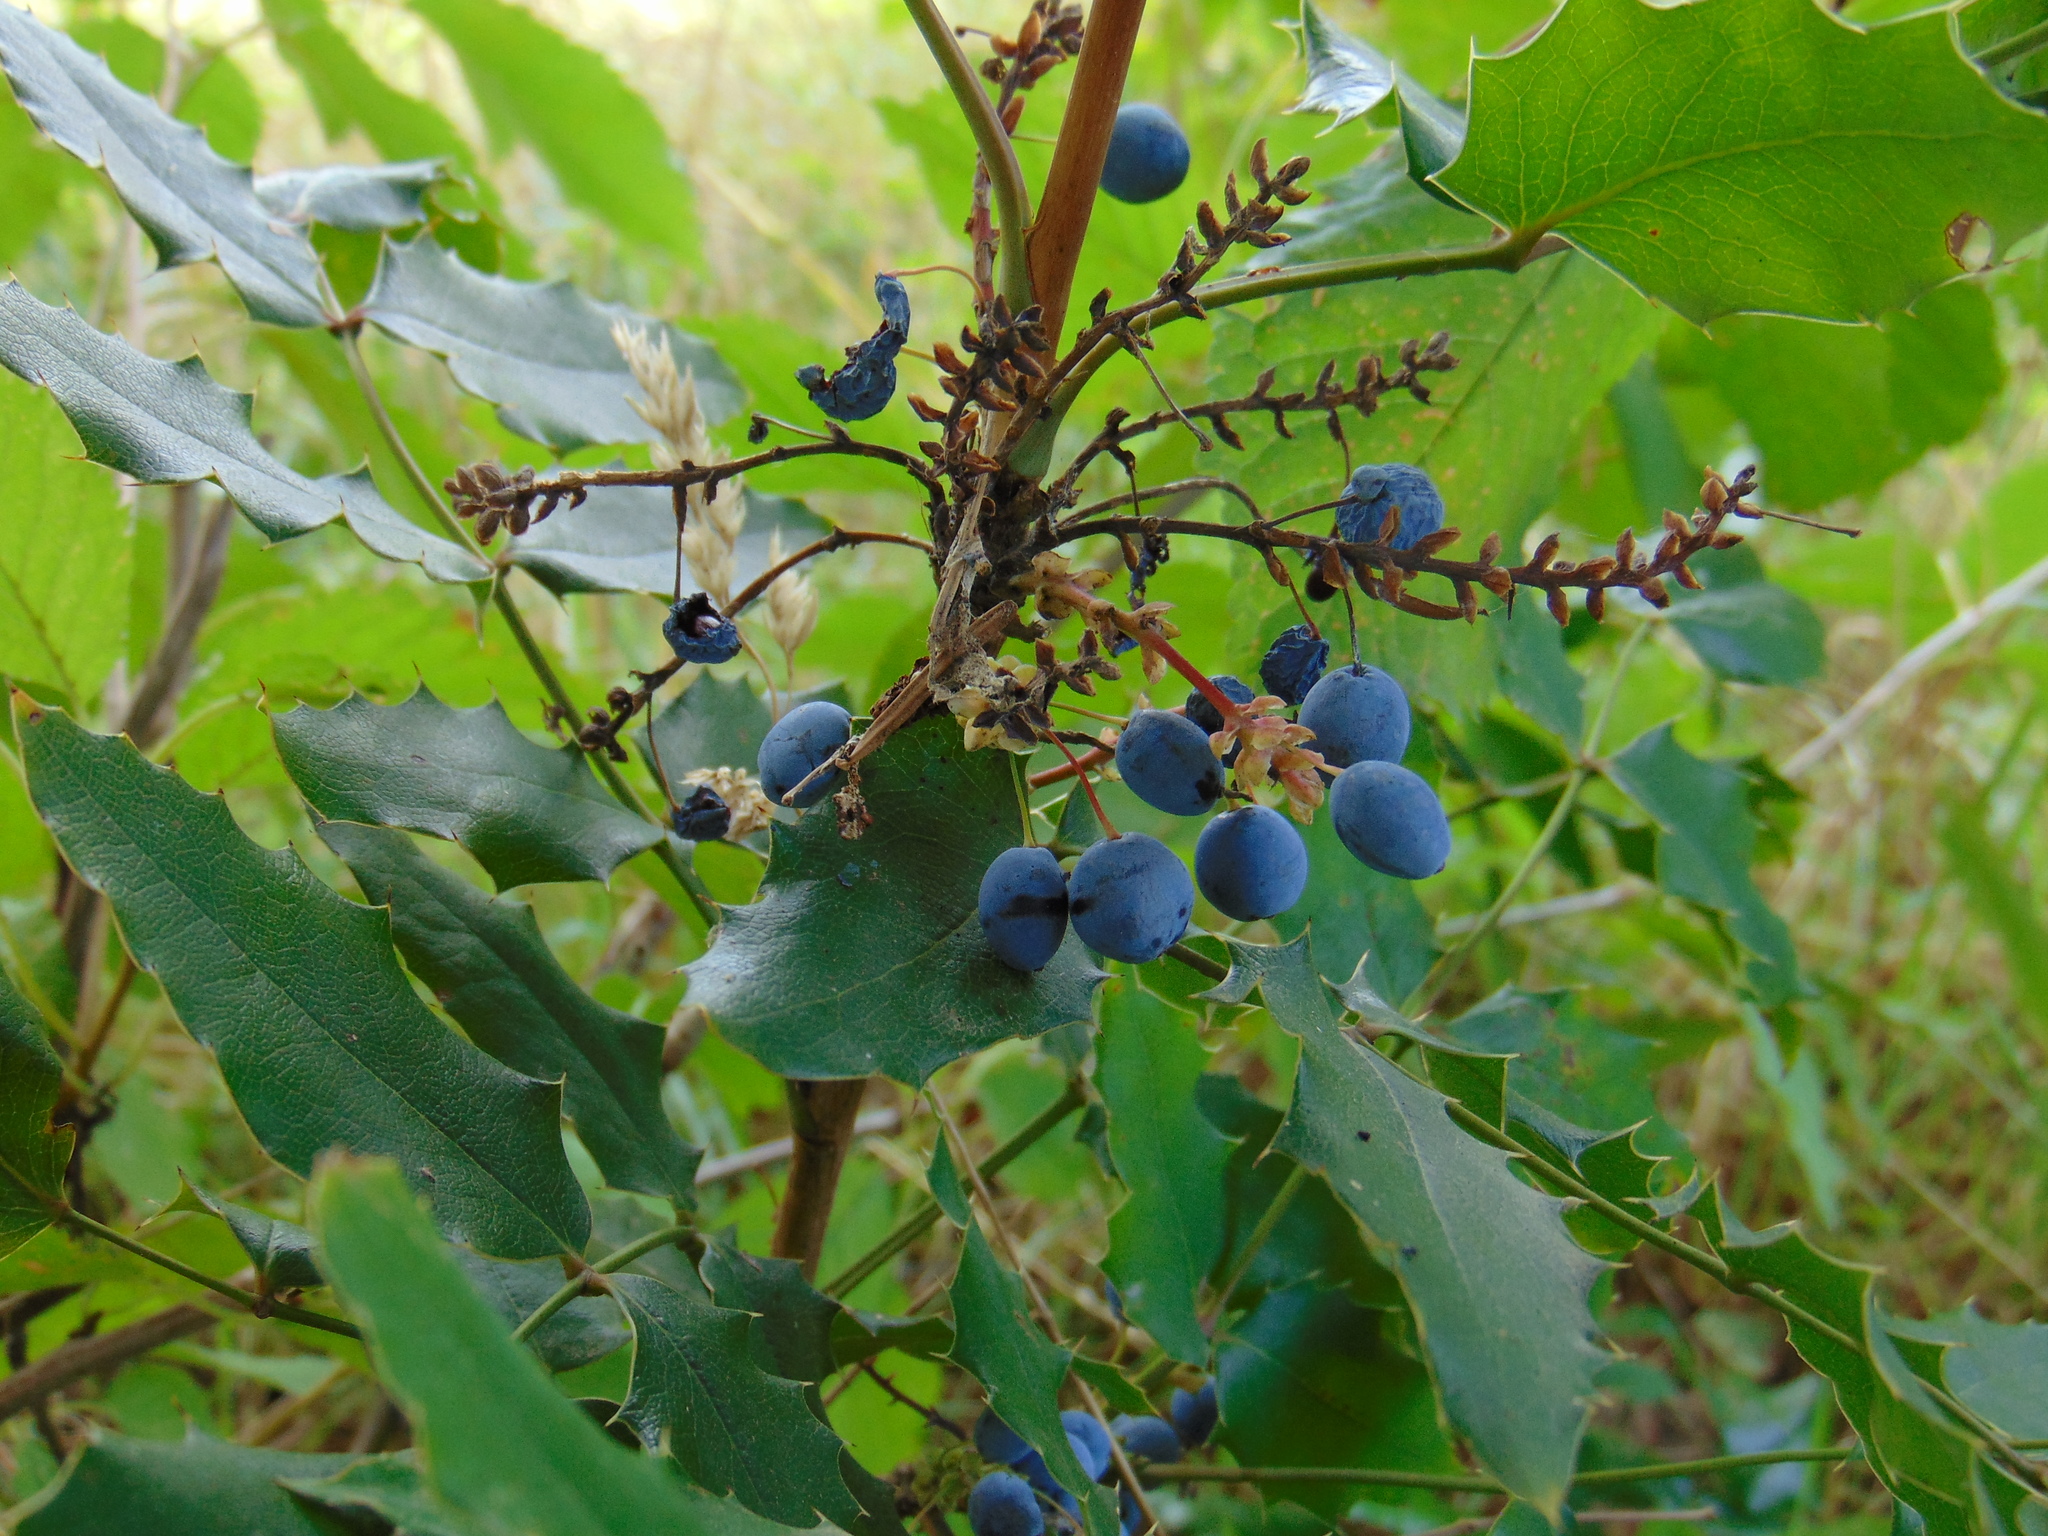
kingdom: Plantae
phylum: Tracheophyta
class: Magnoliopsida
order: Ranunculales
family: Berberidaceae
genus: Mahonia
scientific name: Mahonia aquifolium
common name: Oregon-grape
